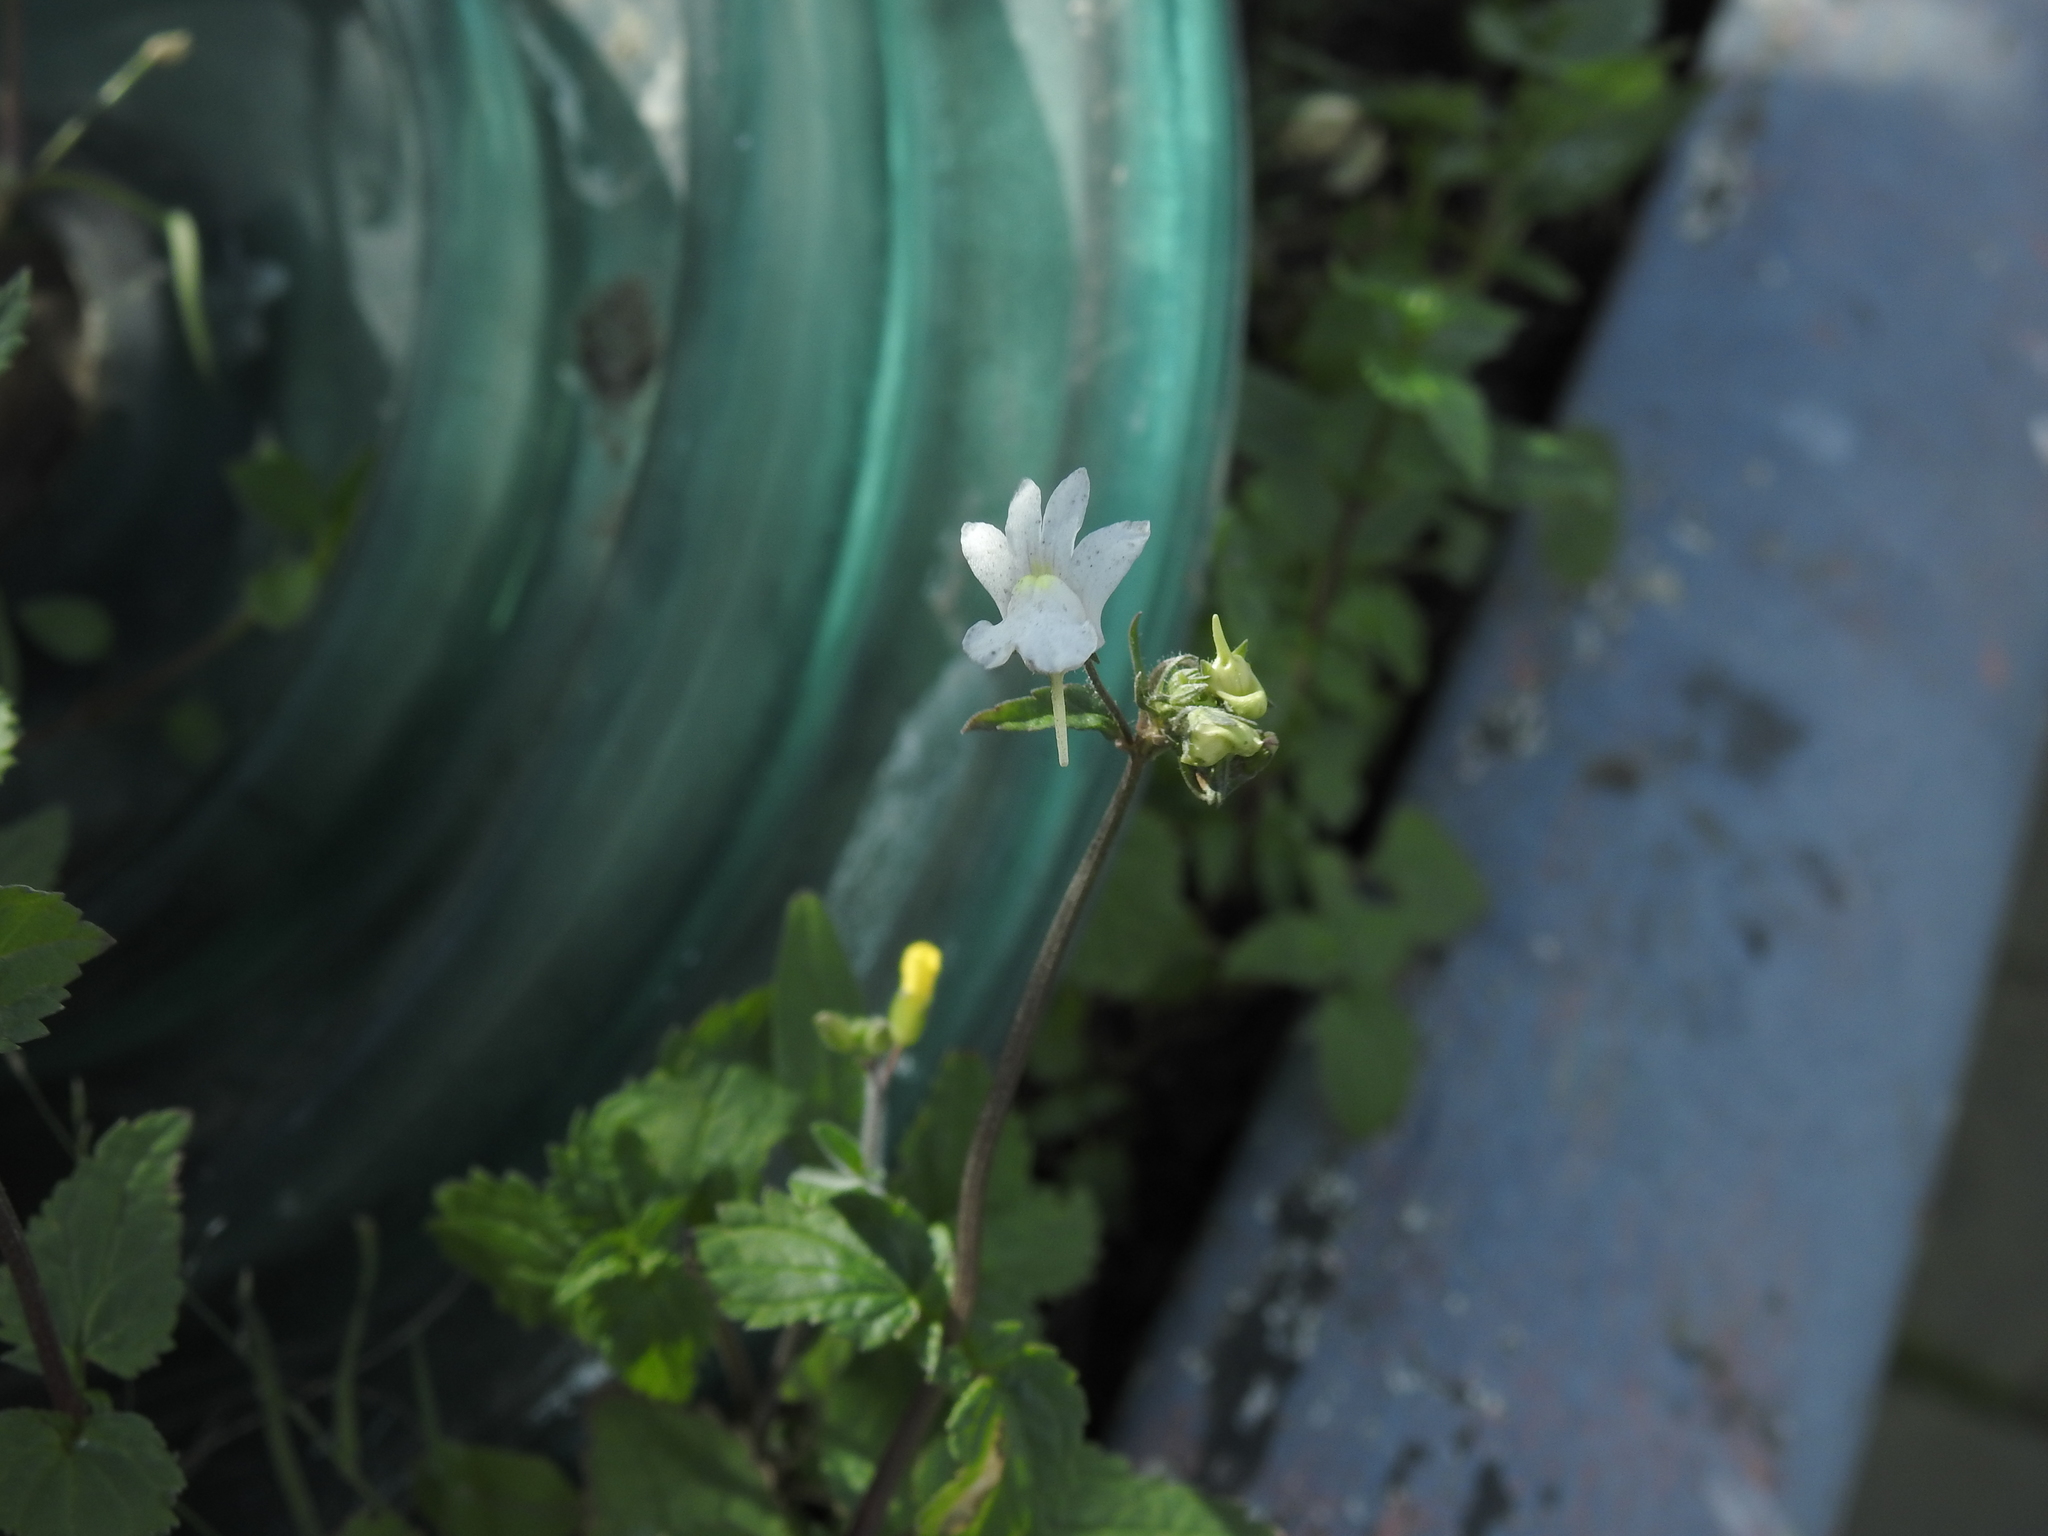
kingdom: Plantae
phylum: Tracheophyta
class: Magnoliopsida
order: Lamiales
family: Scrophulariaceae
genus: Nemesia
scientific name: Nemesia floribunda
